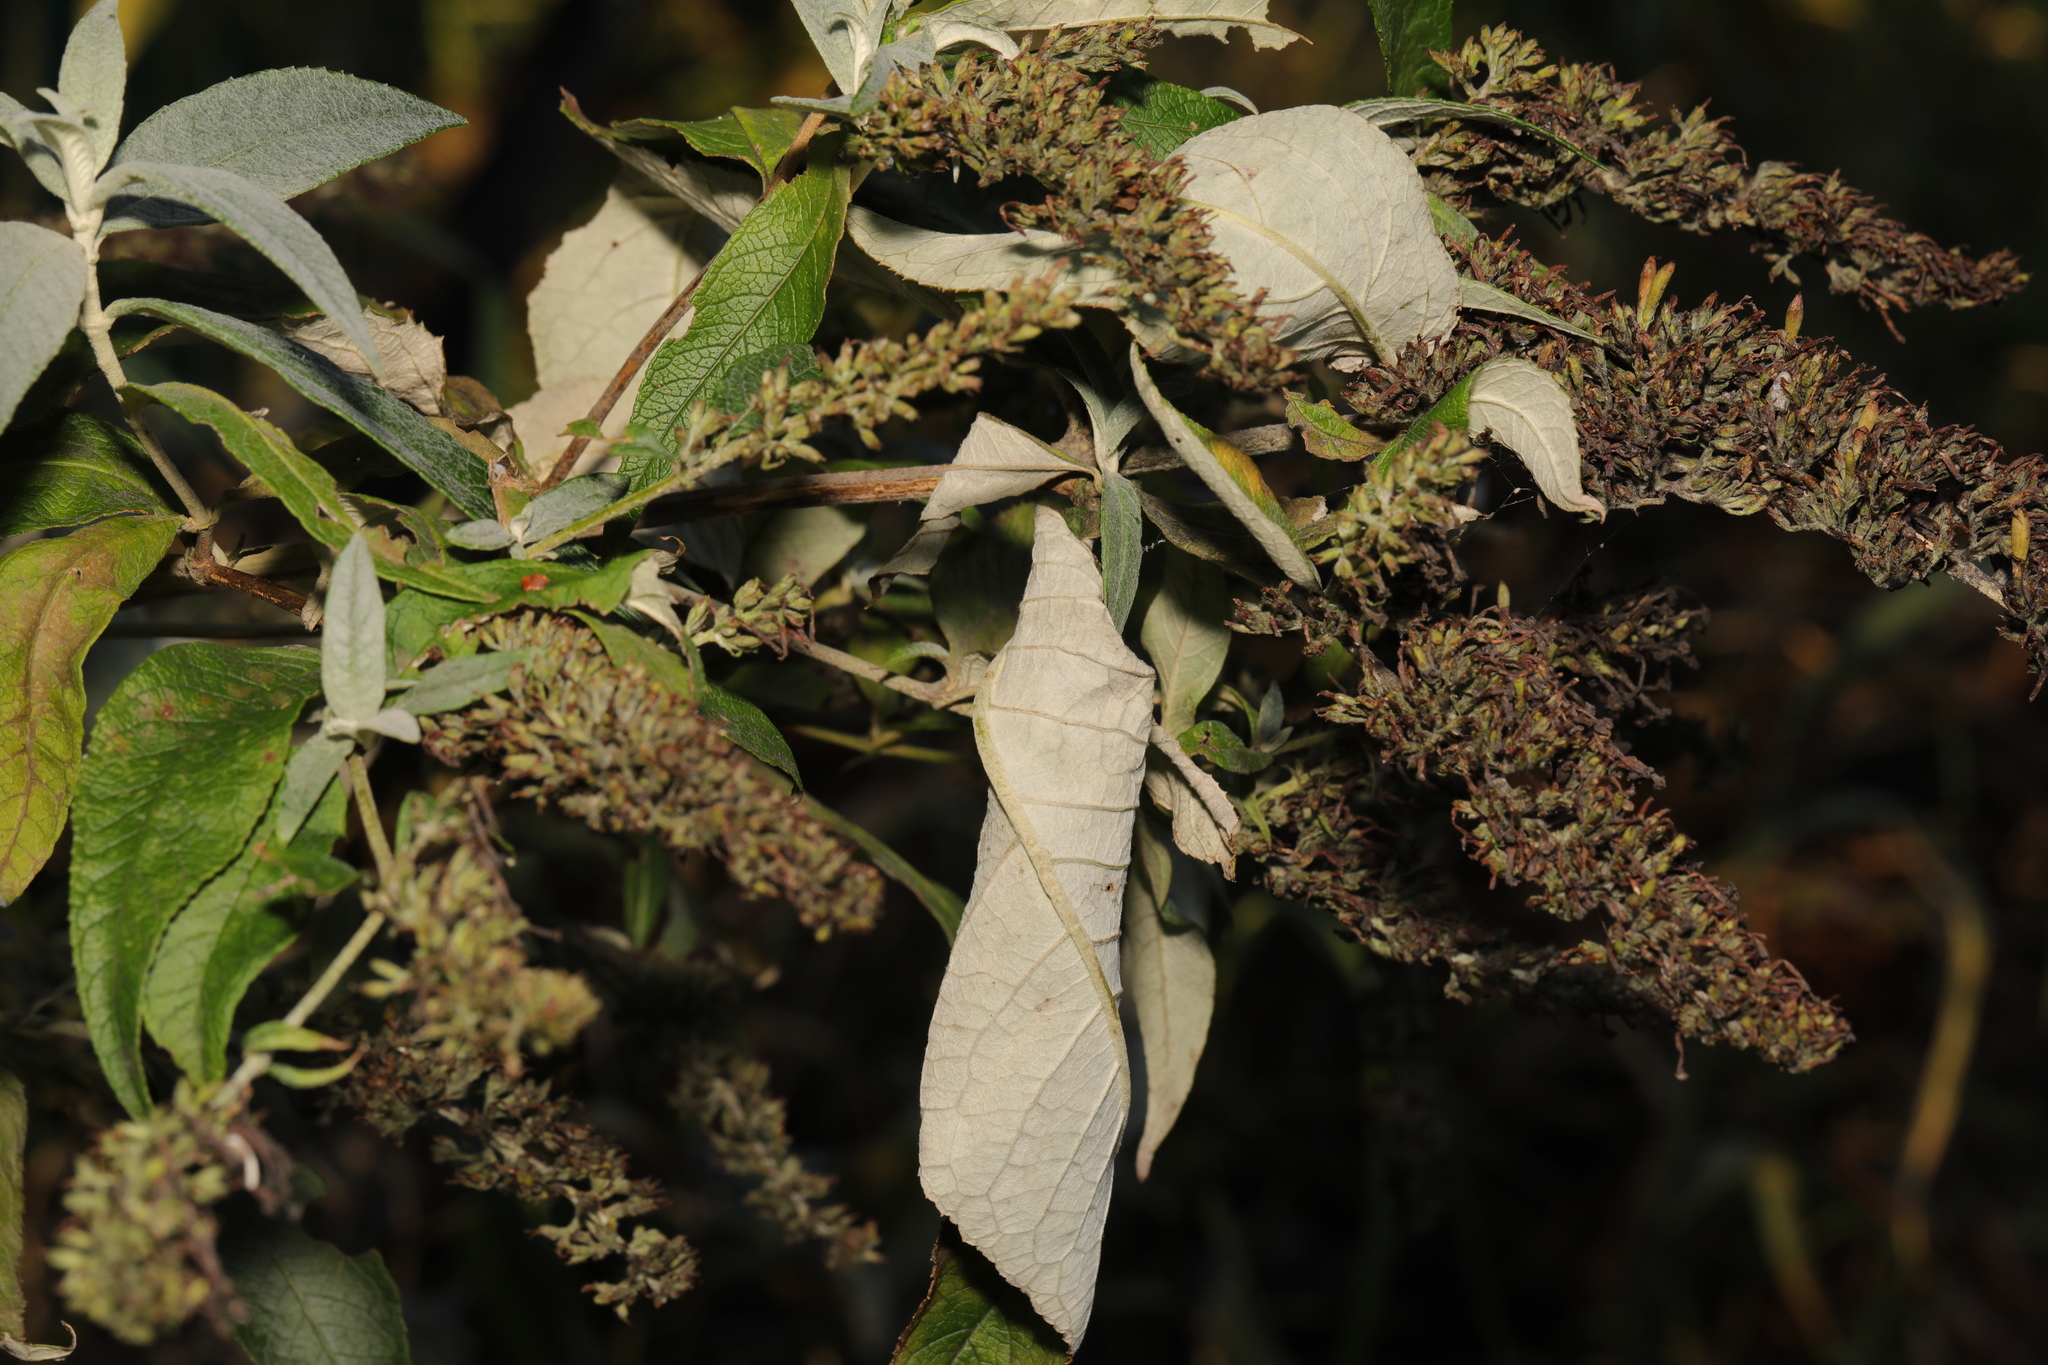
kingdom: Plantae
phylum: Tracheophyta
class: Magnoliopsida
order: Lamiales
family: Scrophulariaceae
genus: Buddleja
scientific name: Buddleja davidii
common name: Butterfly-bush
